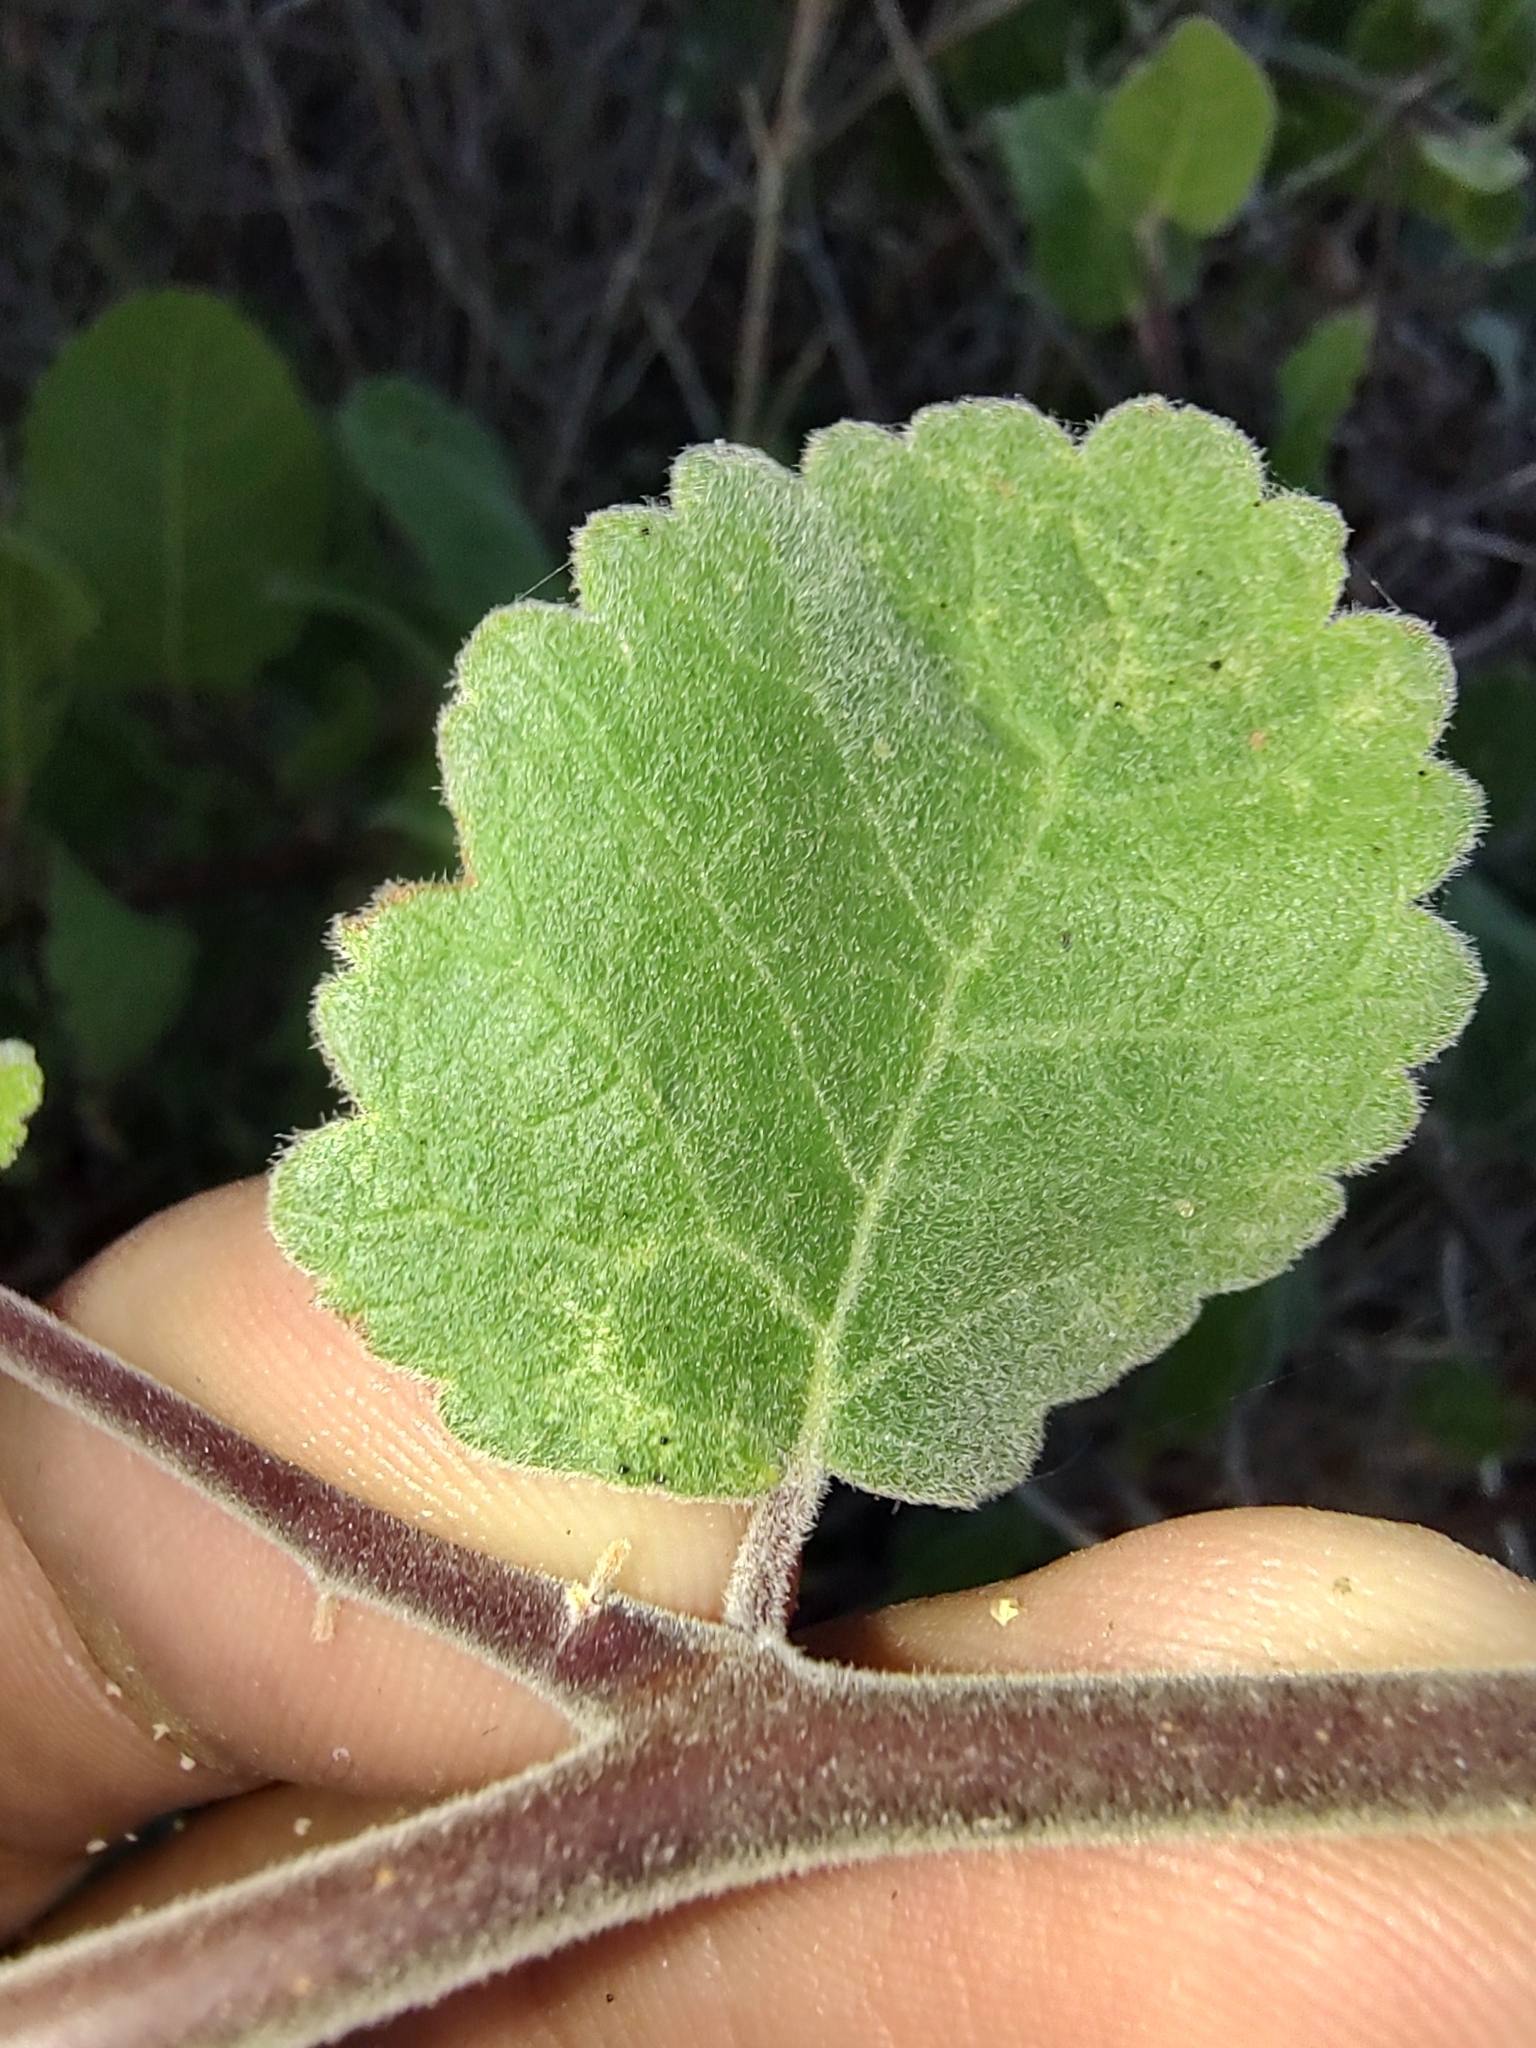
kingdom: Plantae
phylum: Tracheophyta
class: Magnoliopsida
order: Sapindales
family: Burseraceae
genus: Bursera
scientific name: Bursera hindsiana
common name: Red elephant tree
